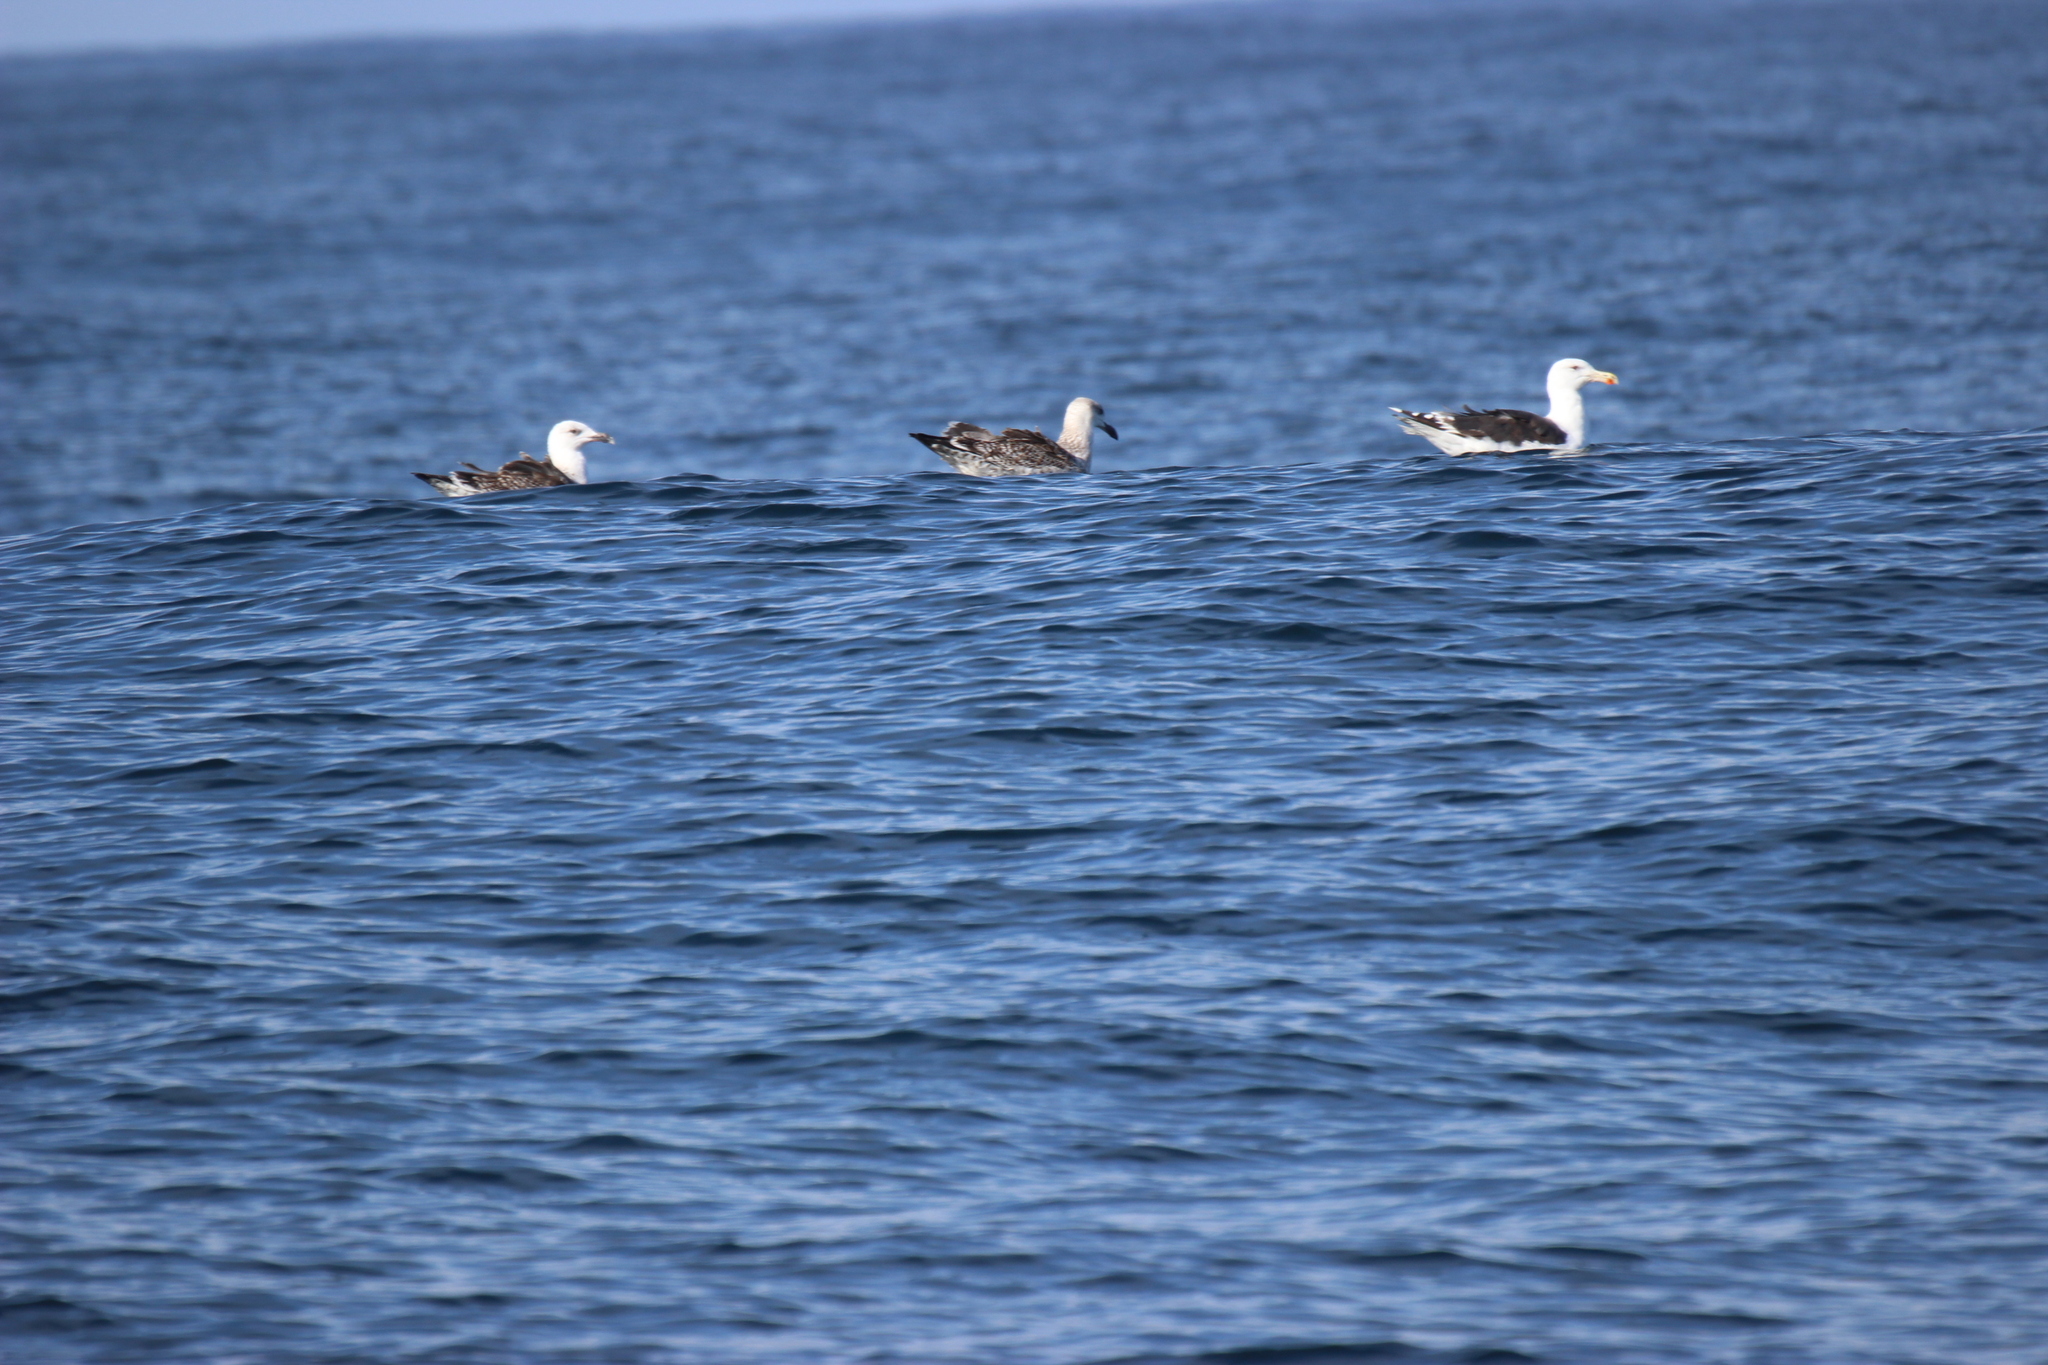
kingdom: Animalia
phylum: Chordata
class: Aves
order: Charadriiformes
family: Laridae
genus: Larus
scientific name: Larus marinus
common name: Great black-backed gull
